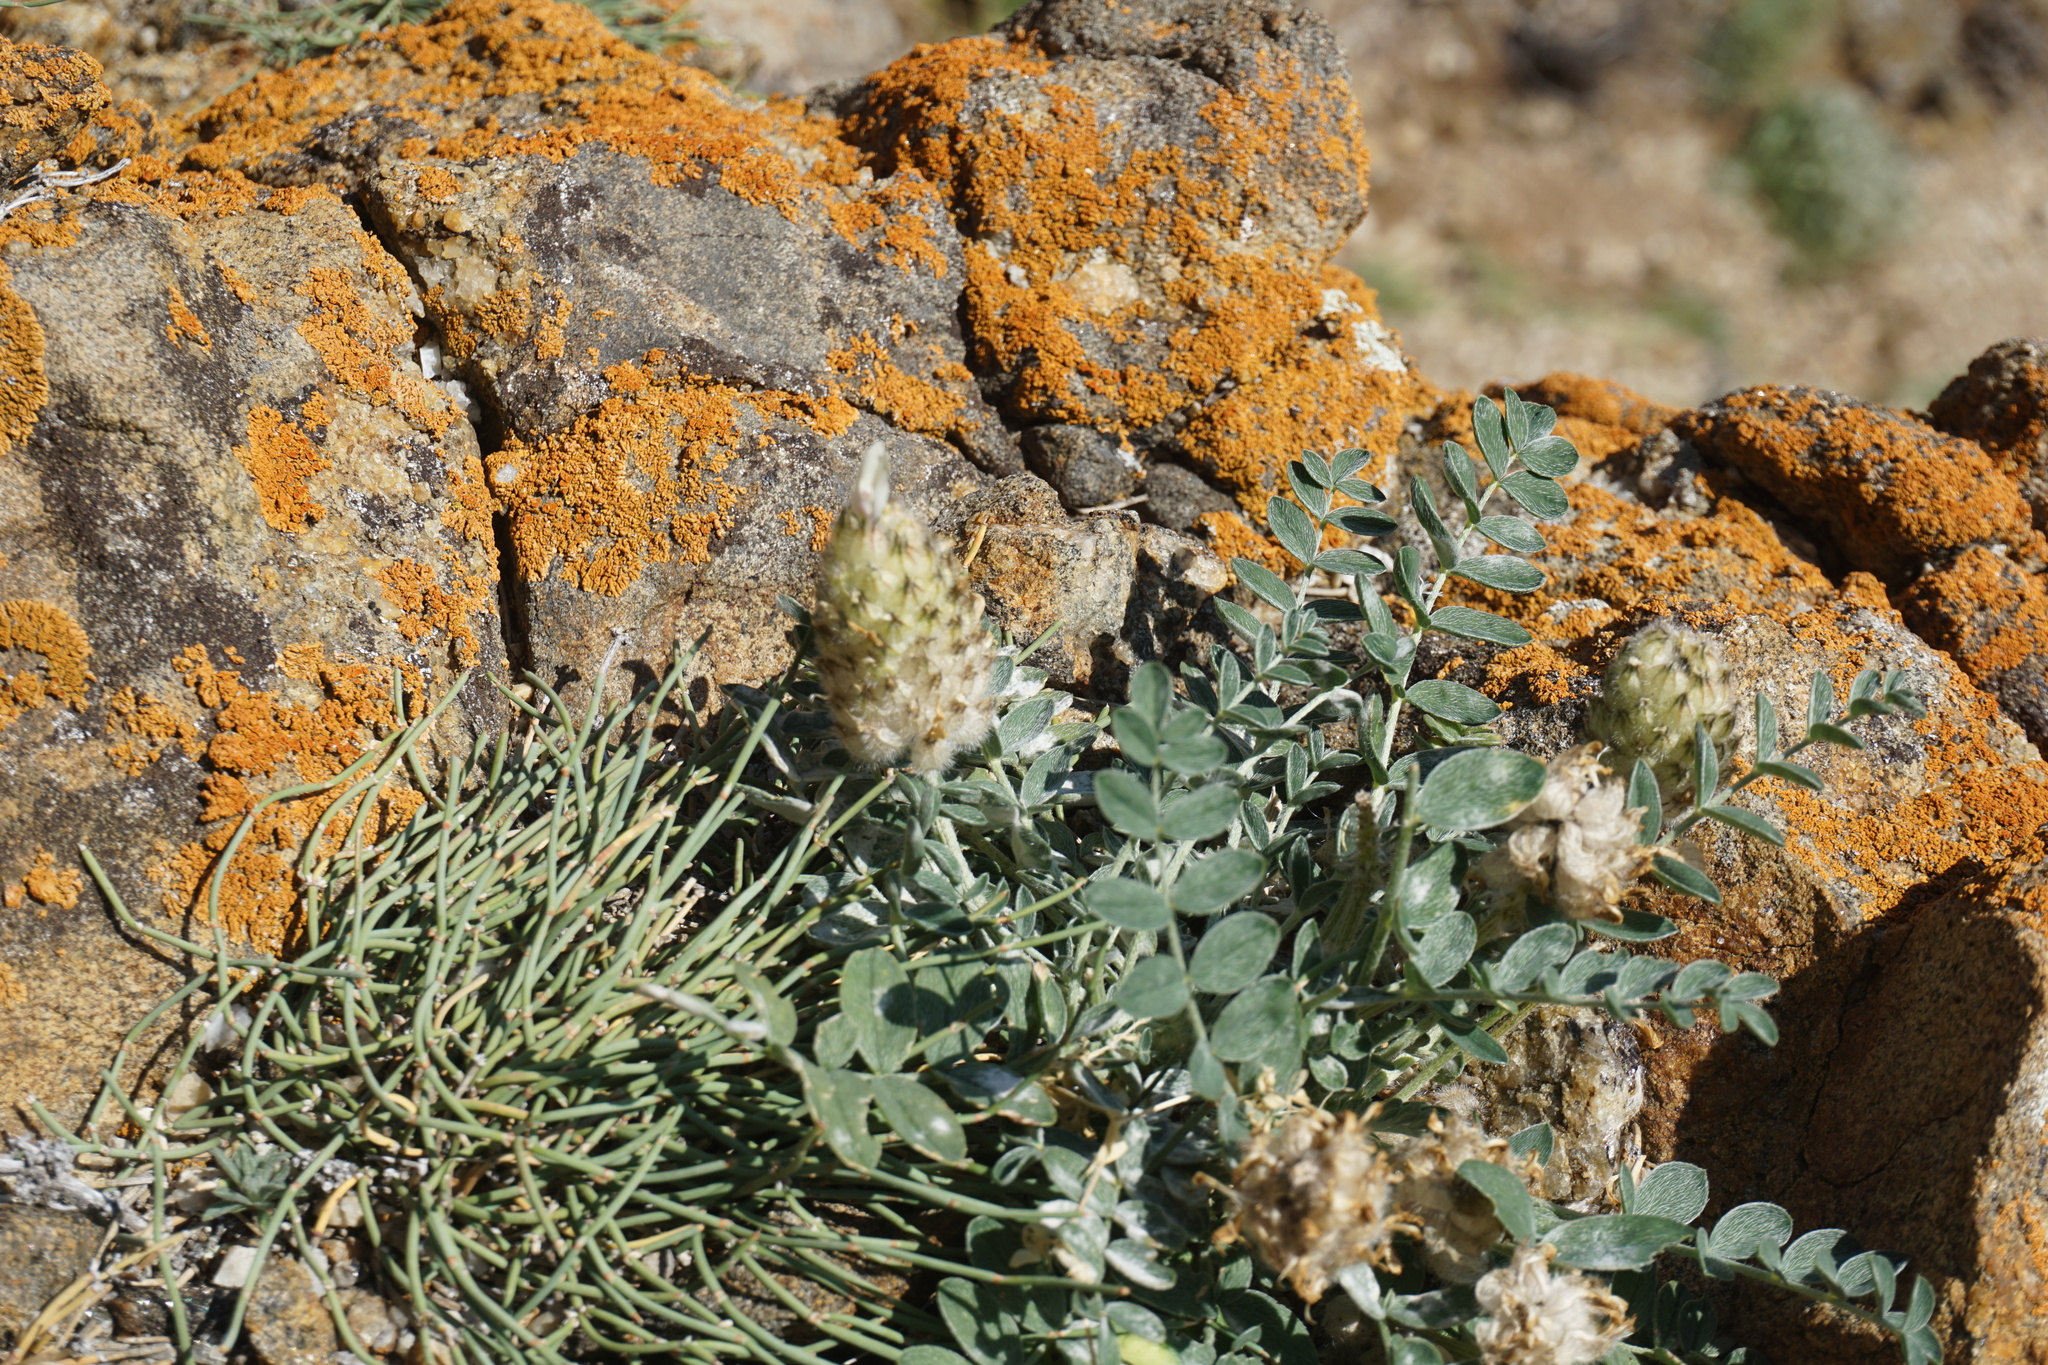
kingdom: Plantae
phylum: Tracheophyta
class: Magnoliopsida
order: Fabales
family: Fabaceae
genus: Astragalus
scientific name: Astragalus lupulinus
